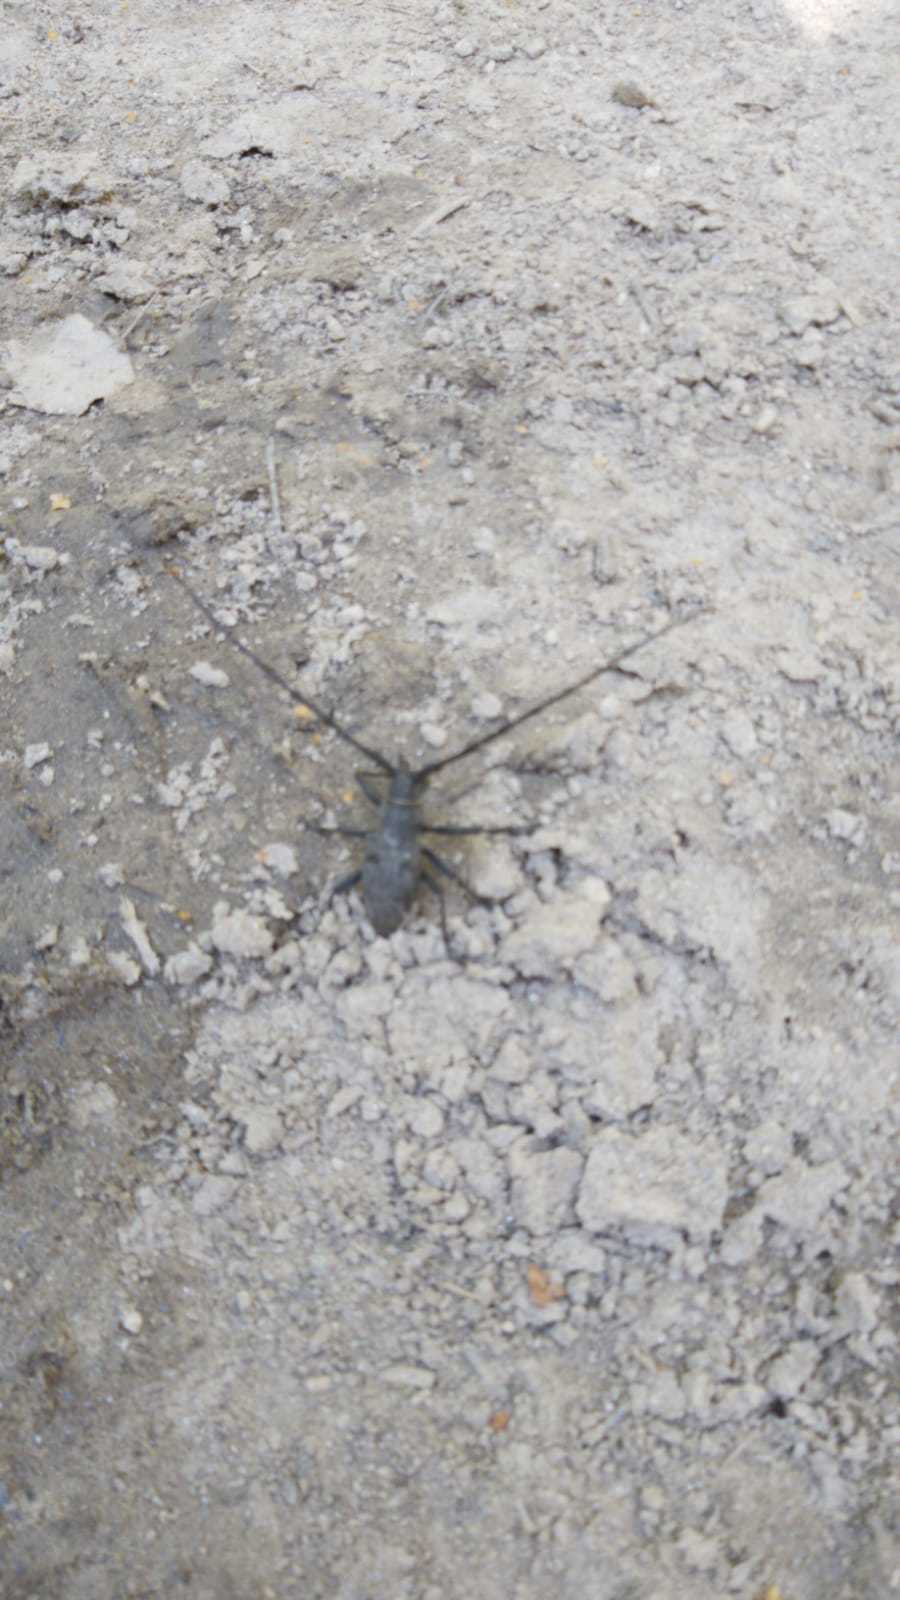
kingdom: Animalia
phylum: Arthropoda
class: Insecta
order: Coleoptera
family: Cerambycidae
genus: Morimus
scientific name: Morimus asper
